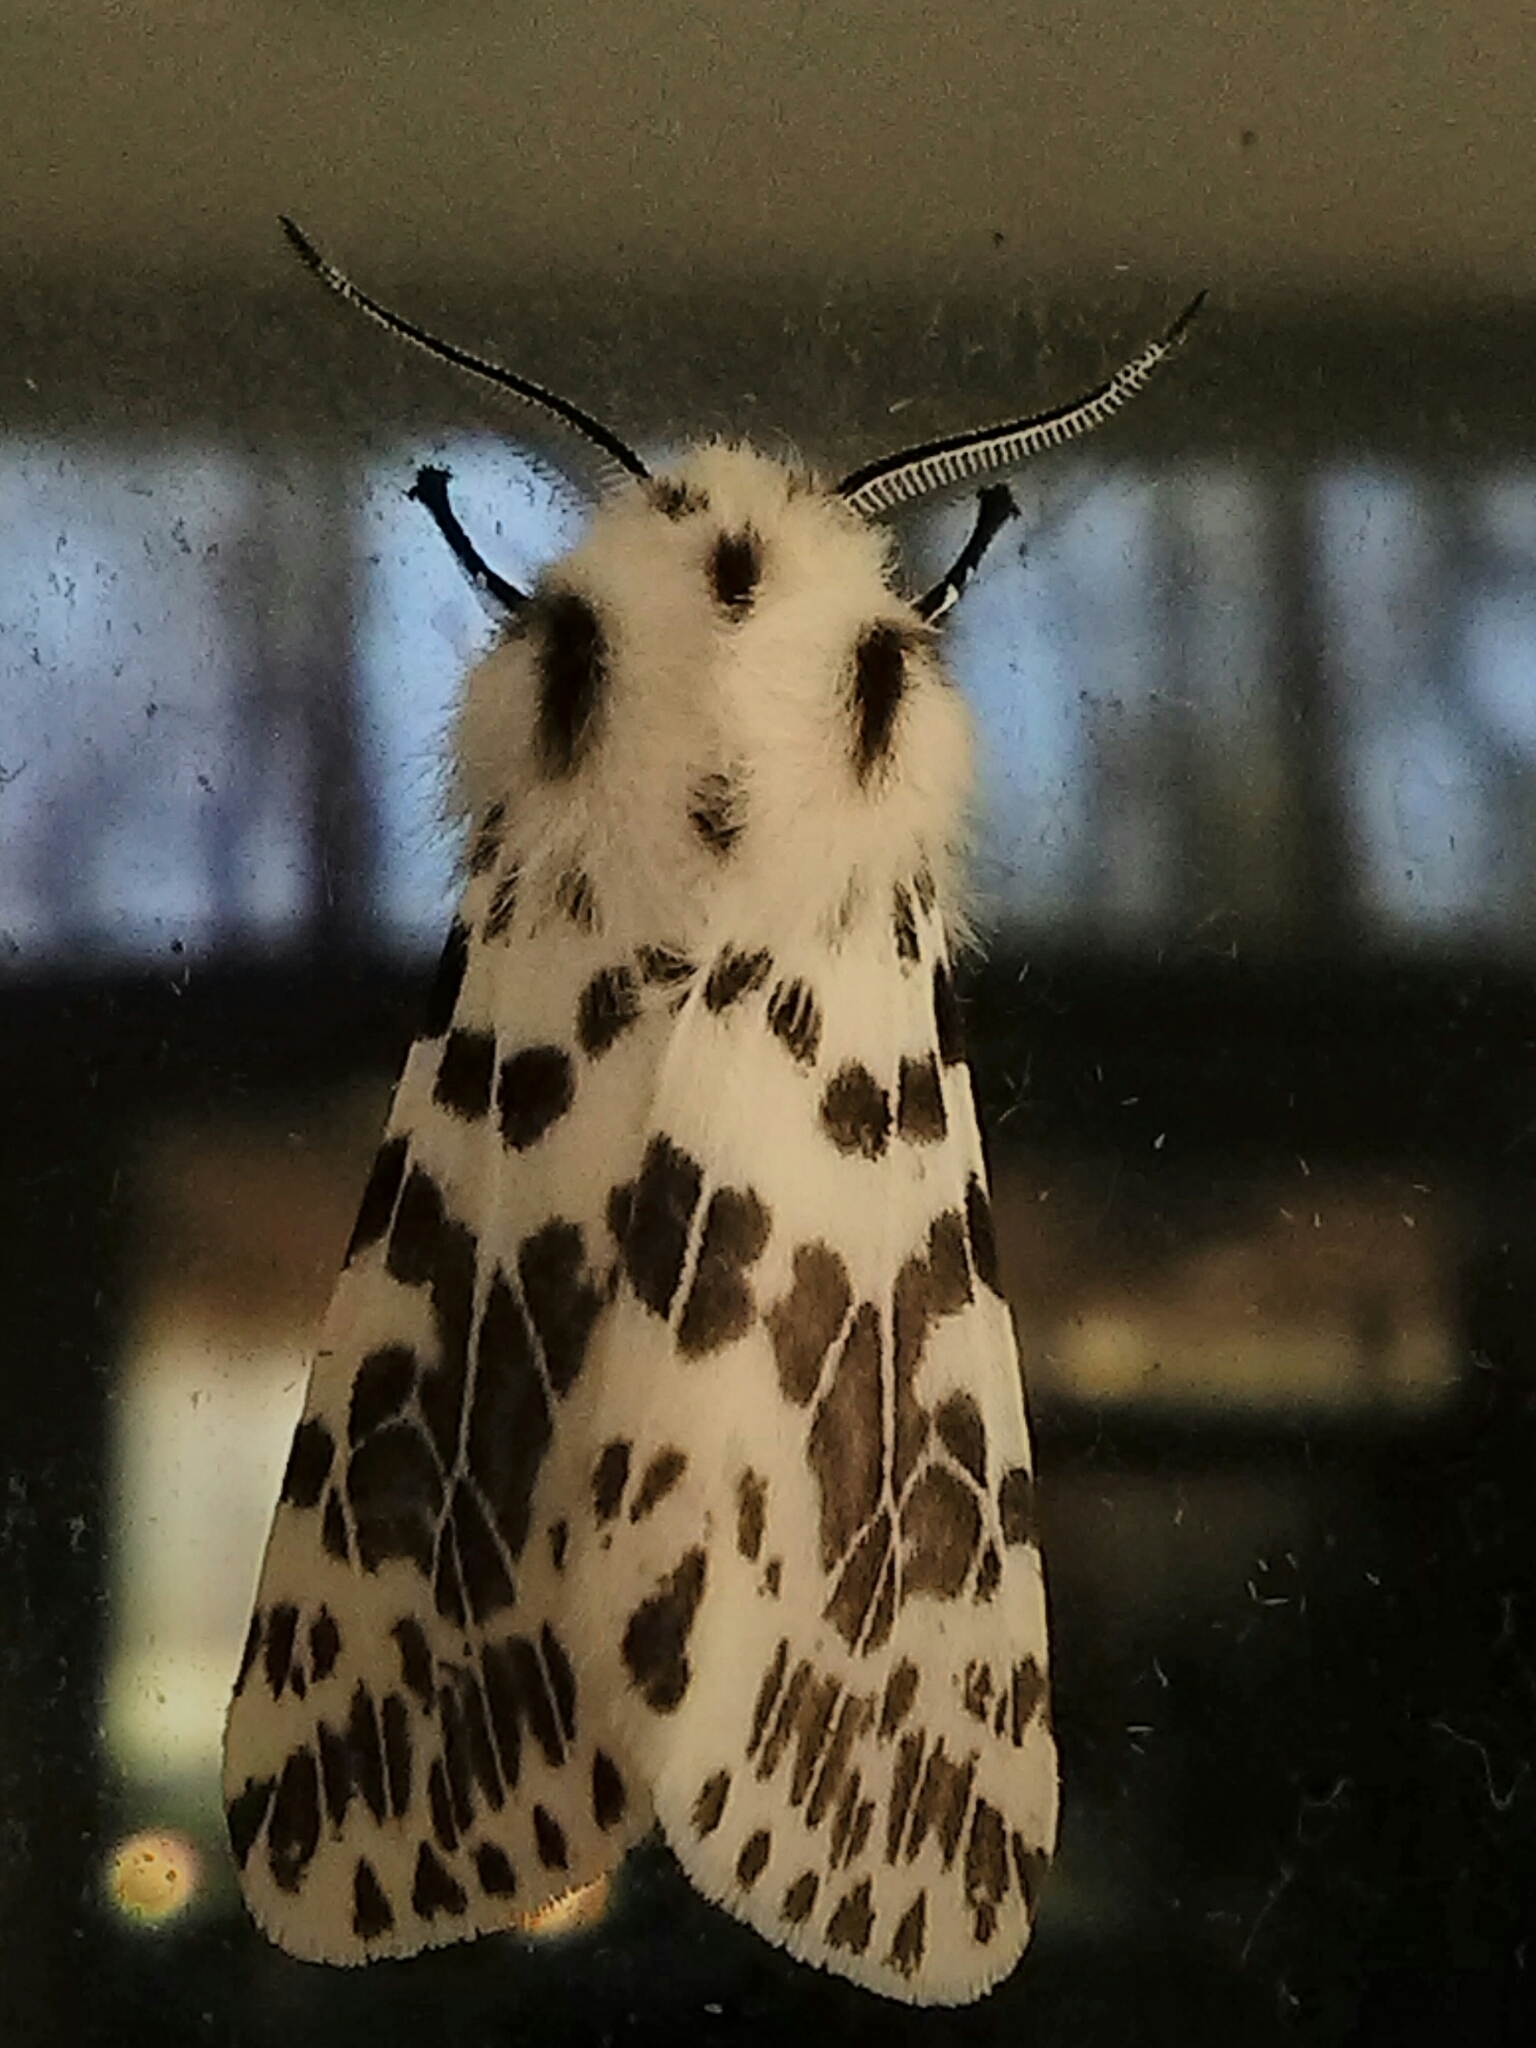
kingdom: Animalia
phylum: Arthropoda
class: Insecta
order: Lepidoptera
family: Erebidae
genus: Hyphantria
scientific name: Hyphantria cunea
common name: American white moth
